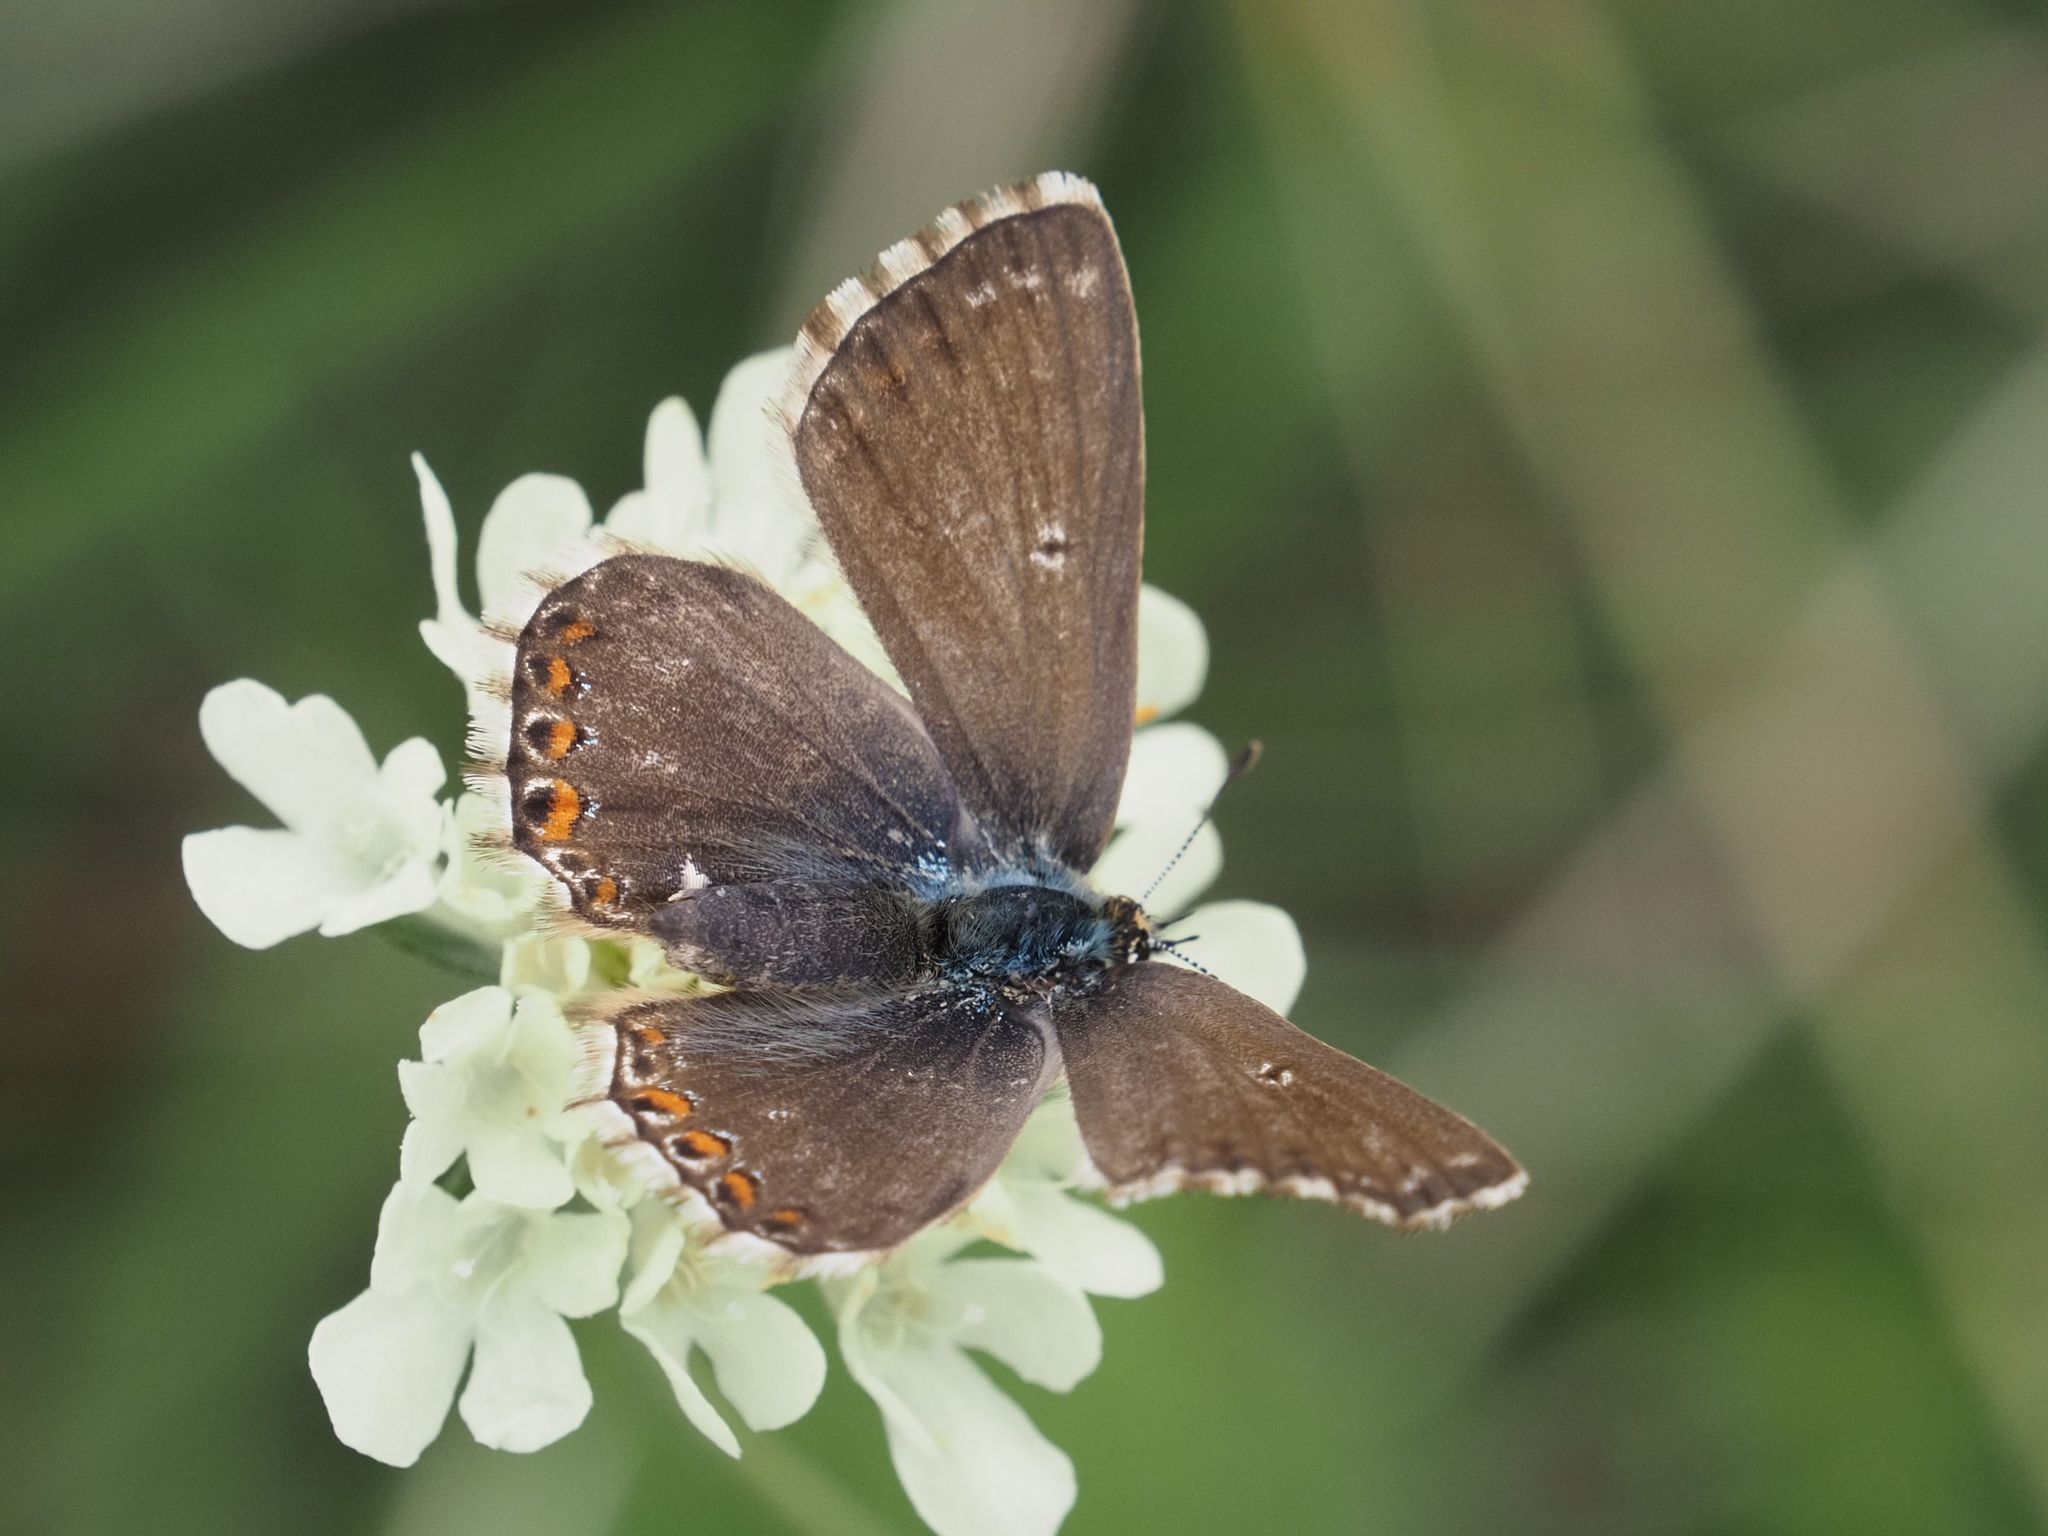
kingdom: Animalia
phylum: Arthropoda
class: Insecta
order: Lepidoptera
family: Lycaenidae
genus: Lysandra
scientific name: Lysandra coridon
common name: Chalkhill blue
